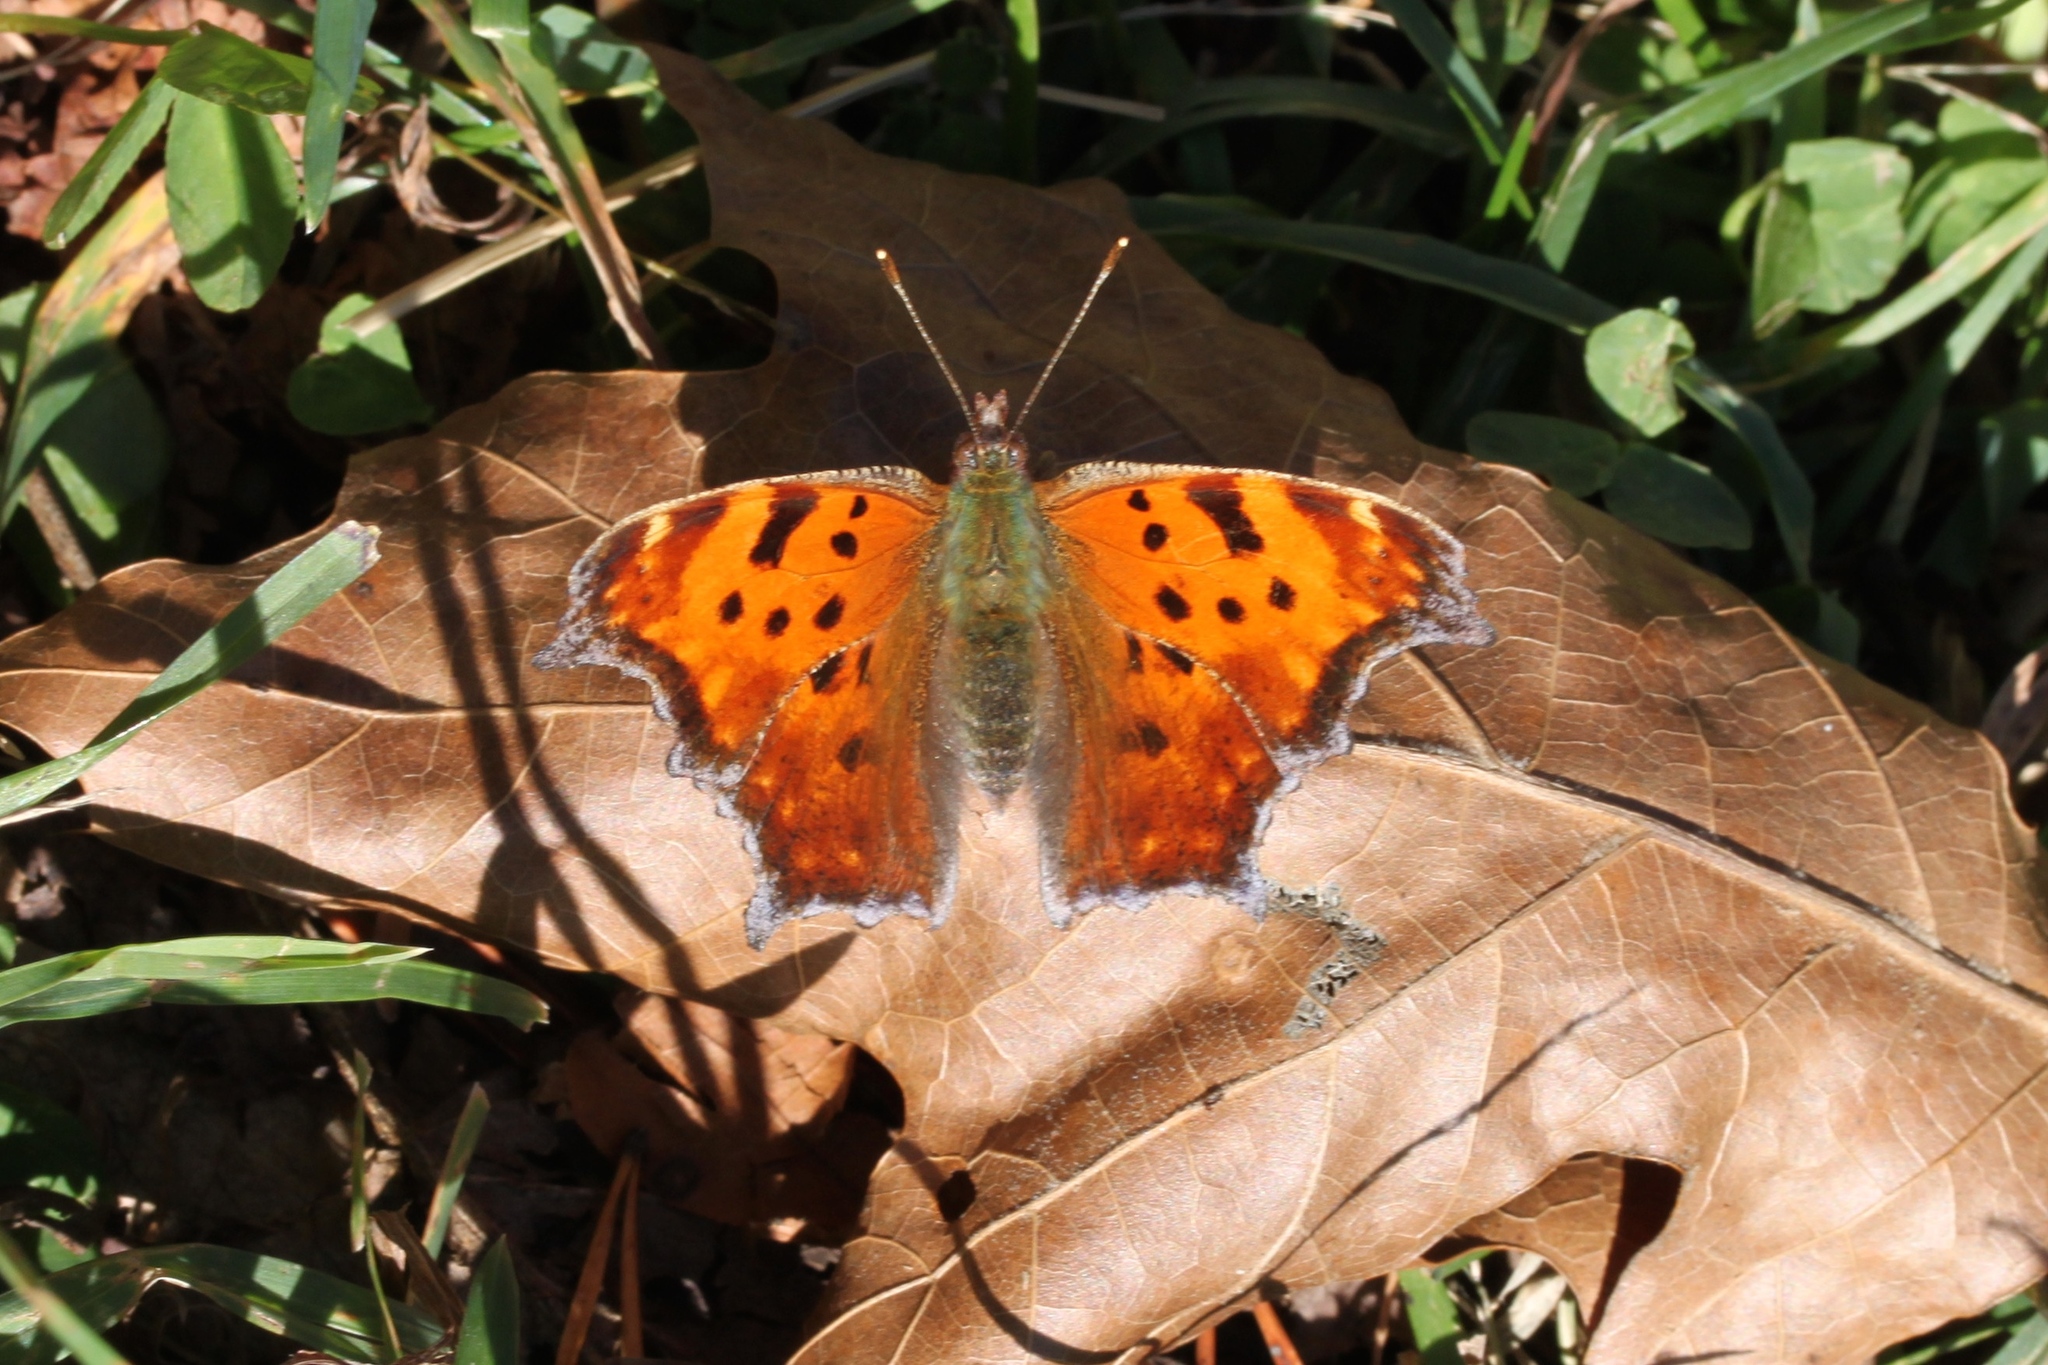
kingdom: Animalia
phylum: Arthropoda
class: Insecta
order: Lepidoptera
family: Nymphalidae
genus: Polygonia
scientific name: Polygonia comma
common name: Eastern comma
